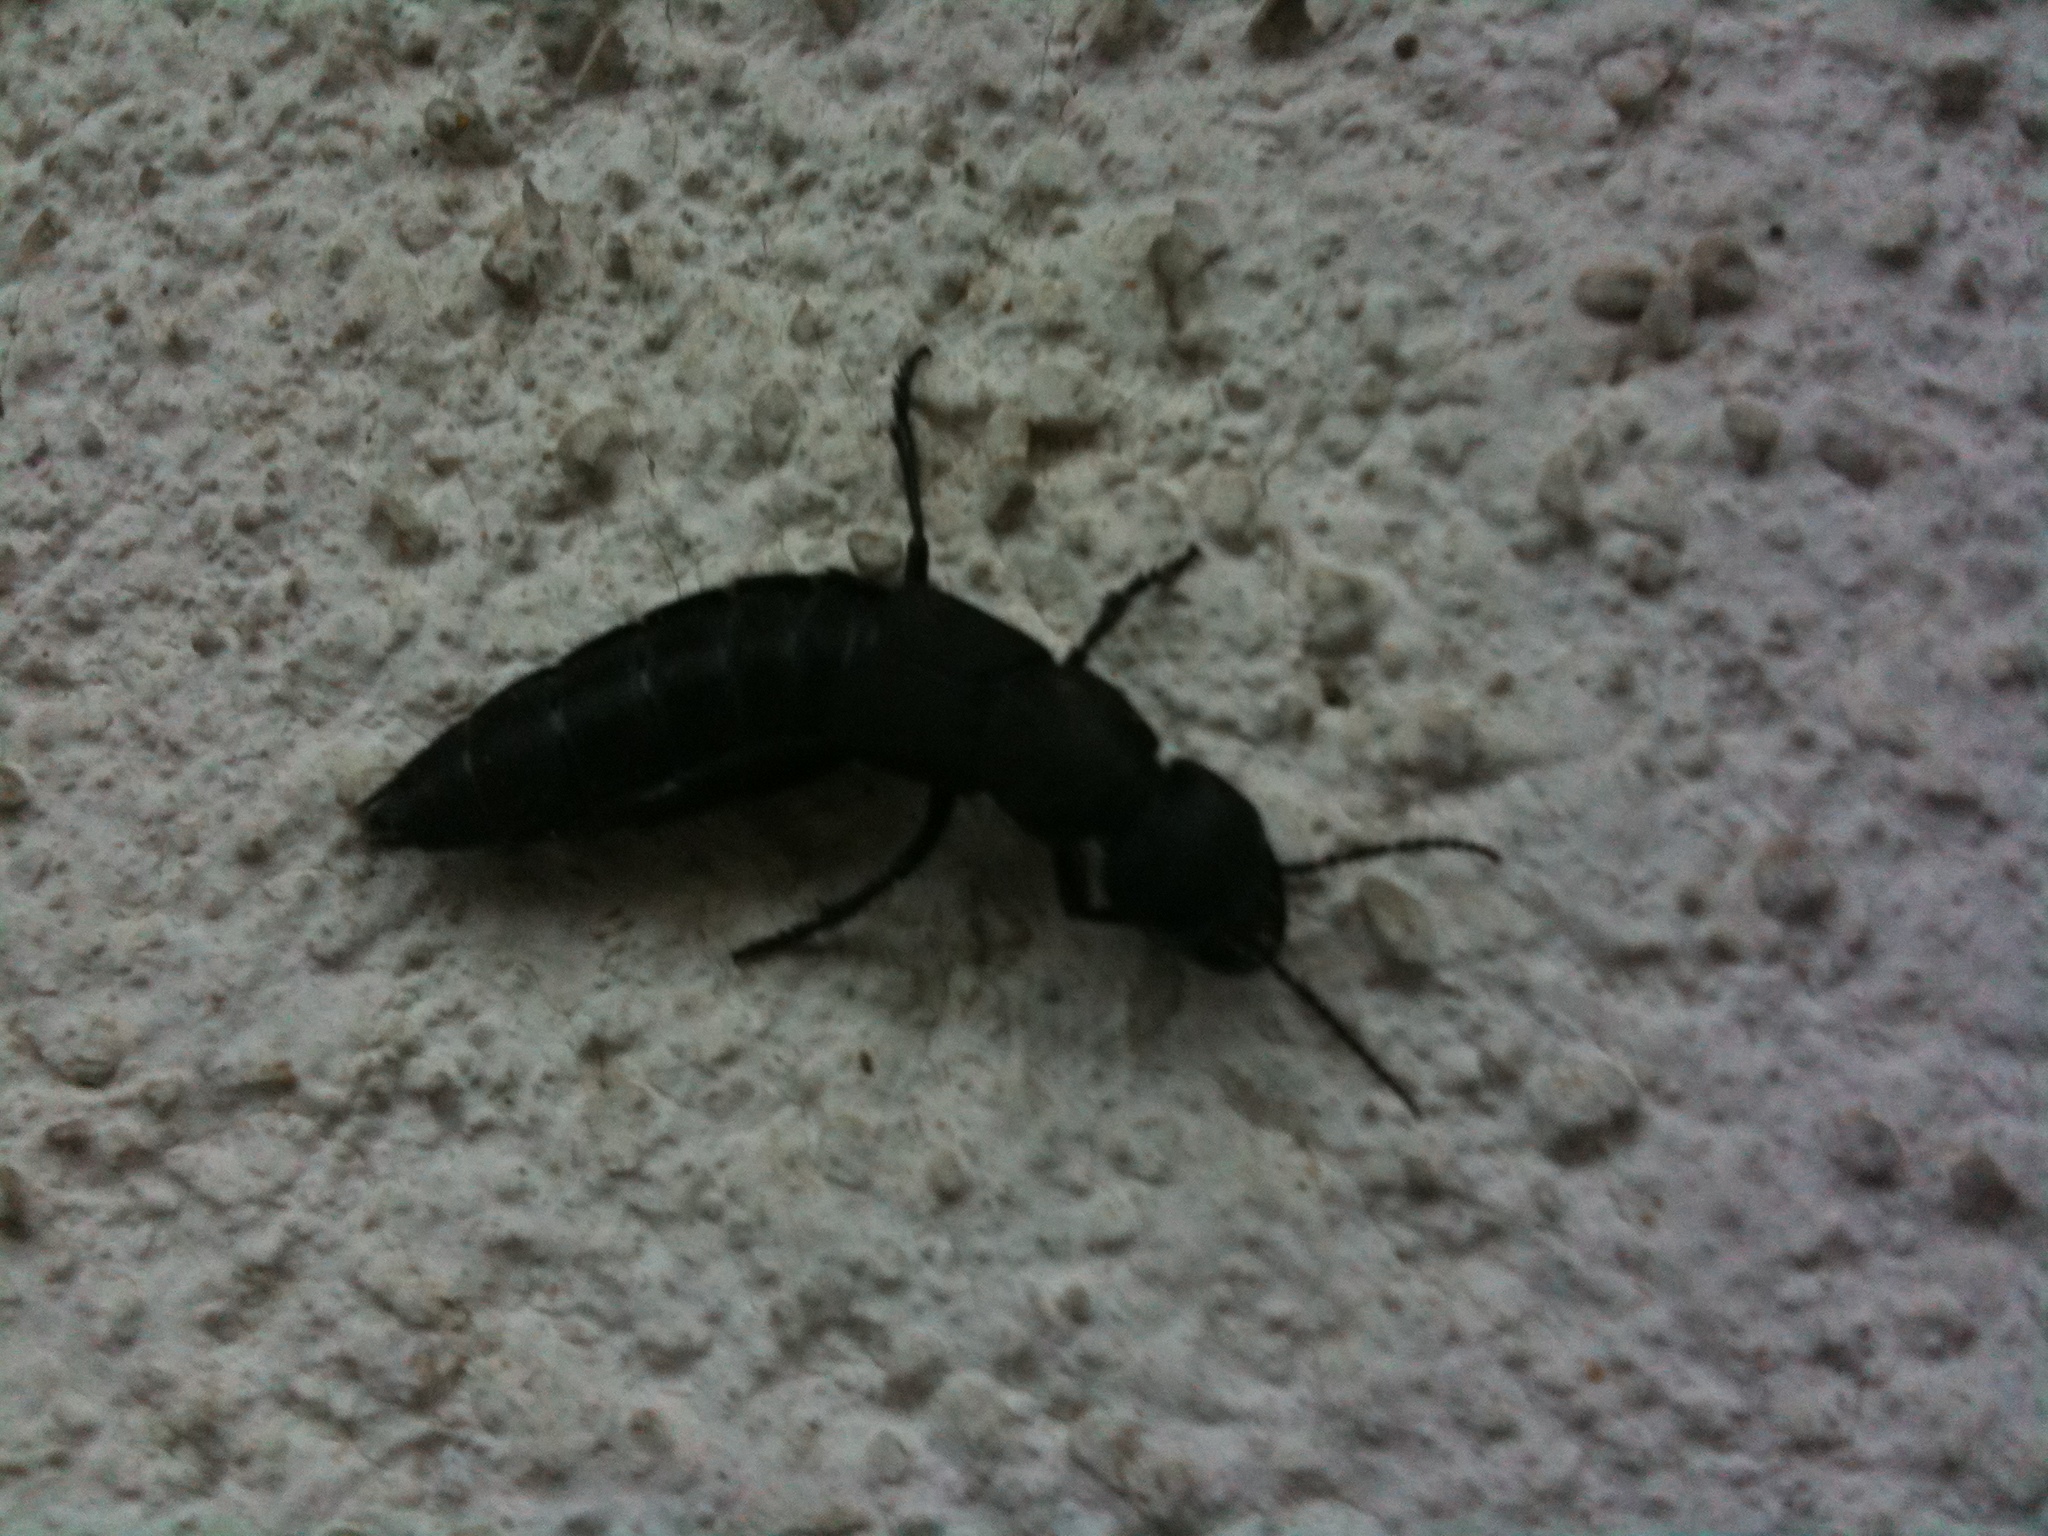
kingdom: Animalia
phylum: Arthropoda
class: Insecta
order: Coleoptera
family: Staphylinidae
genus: Ocypus
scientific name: Ocypus olens
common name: Devil's coach-horse
